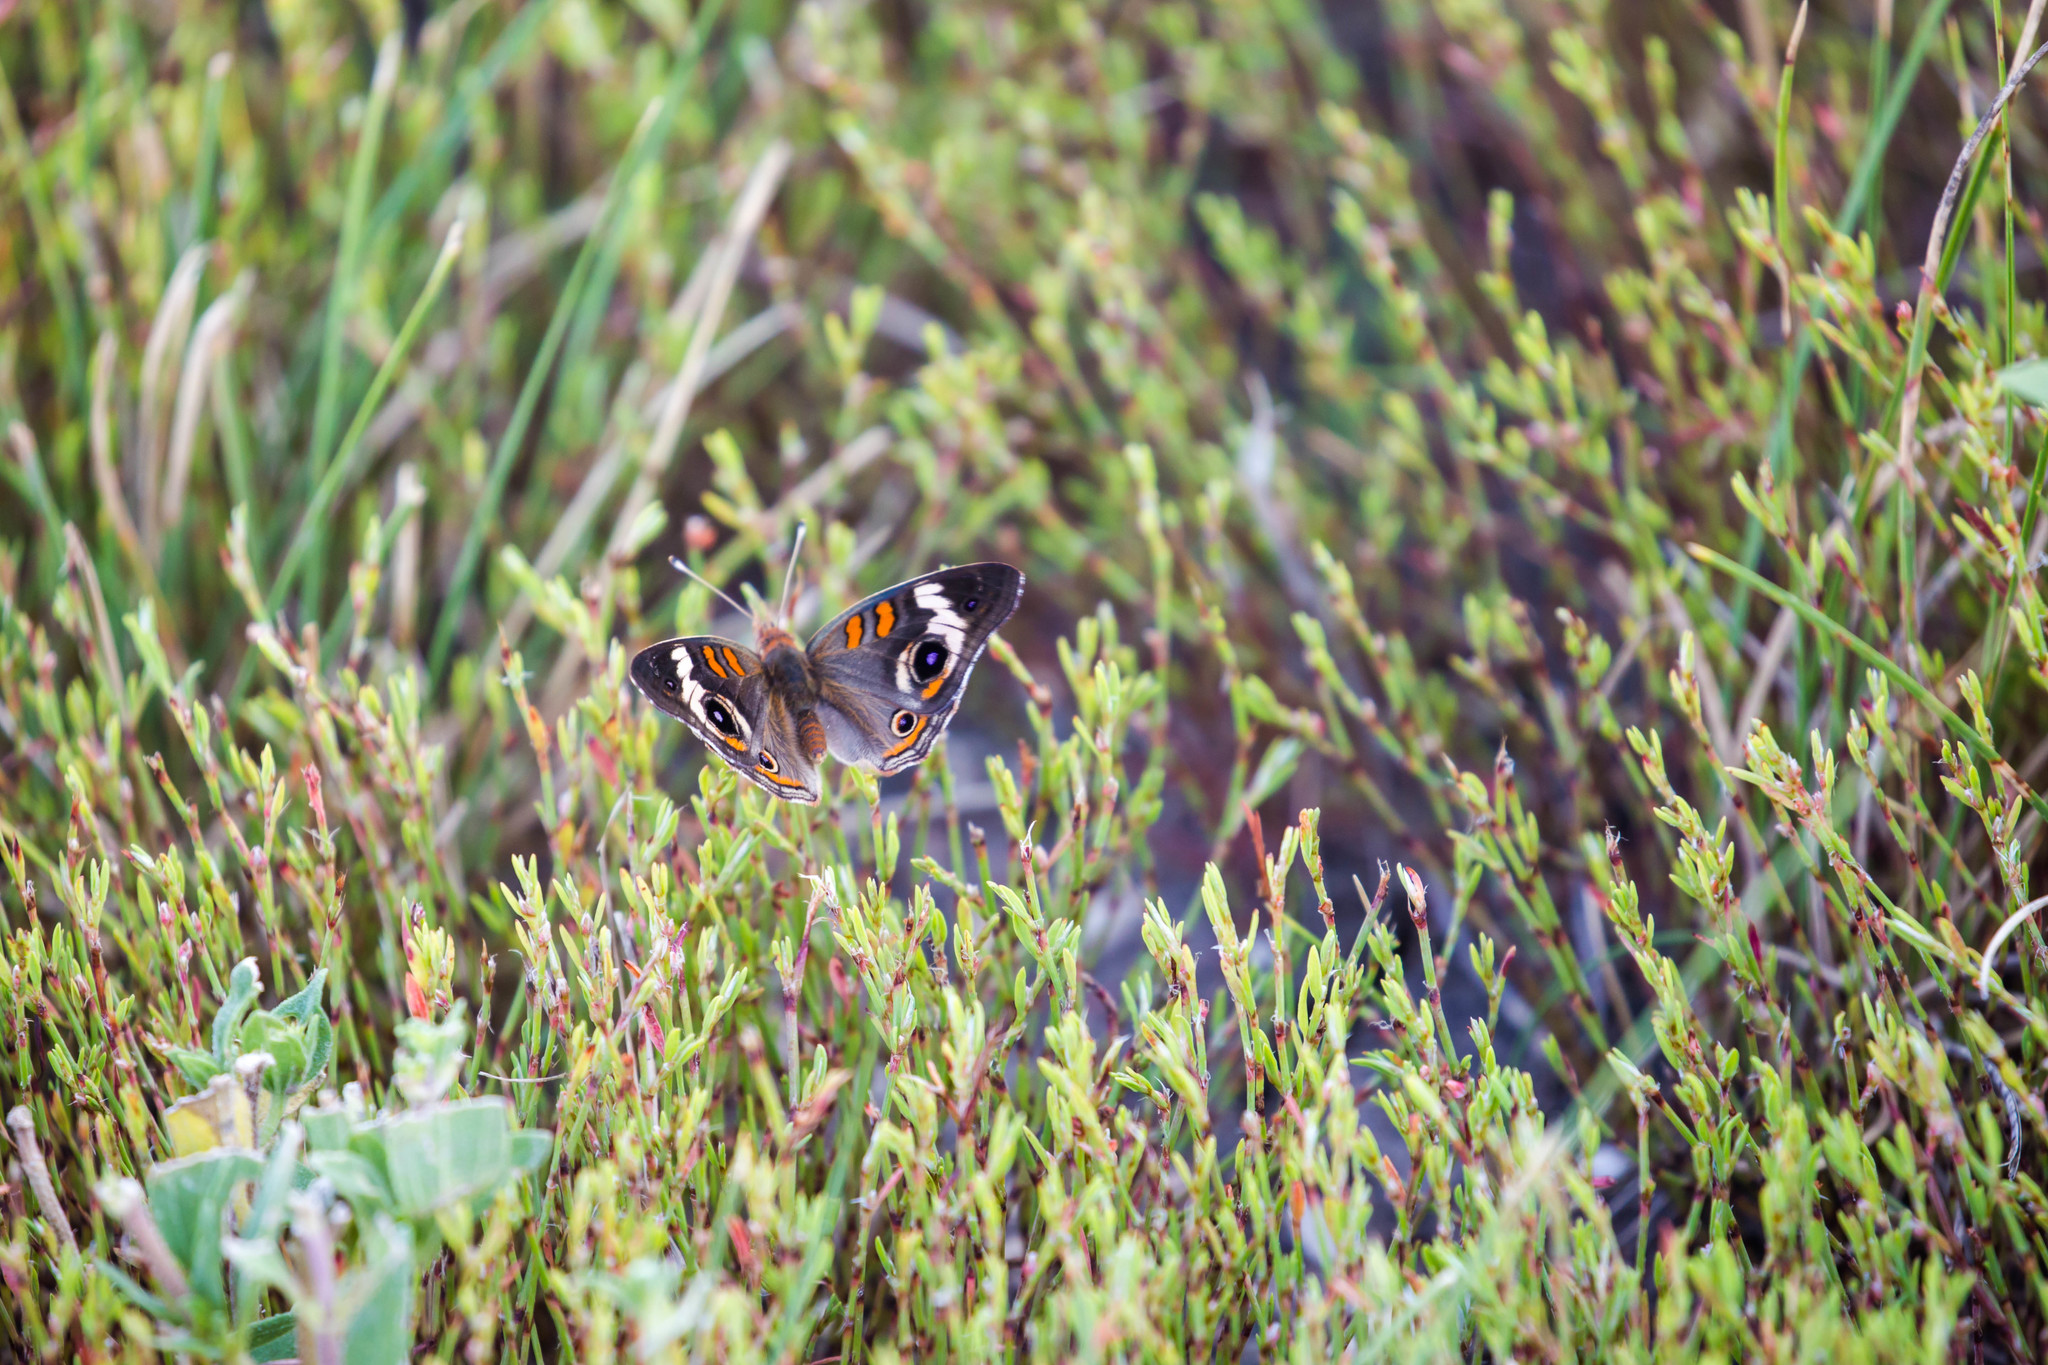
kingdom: Animalia
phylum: Arthropoda
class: Insecta
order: Lepidoptera
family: Nymphalidae
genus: Junonia
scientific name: Junonia coenia
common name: Common buckeye
